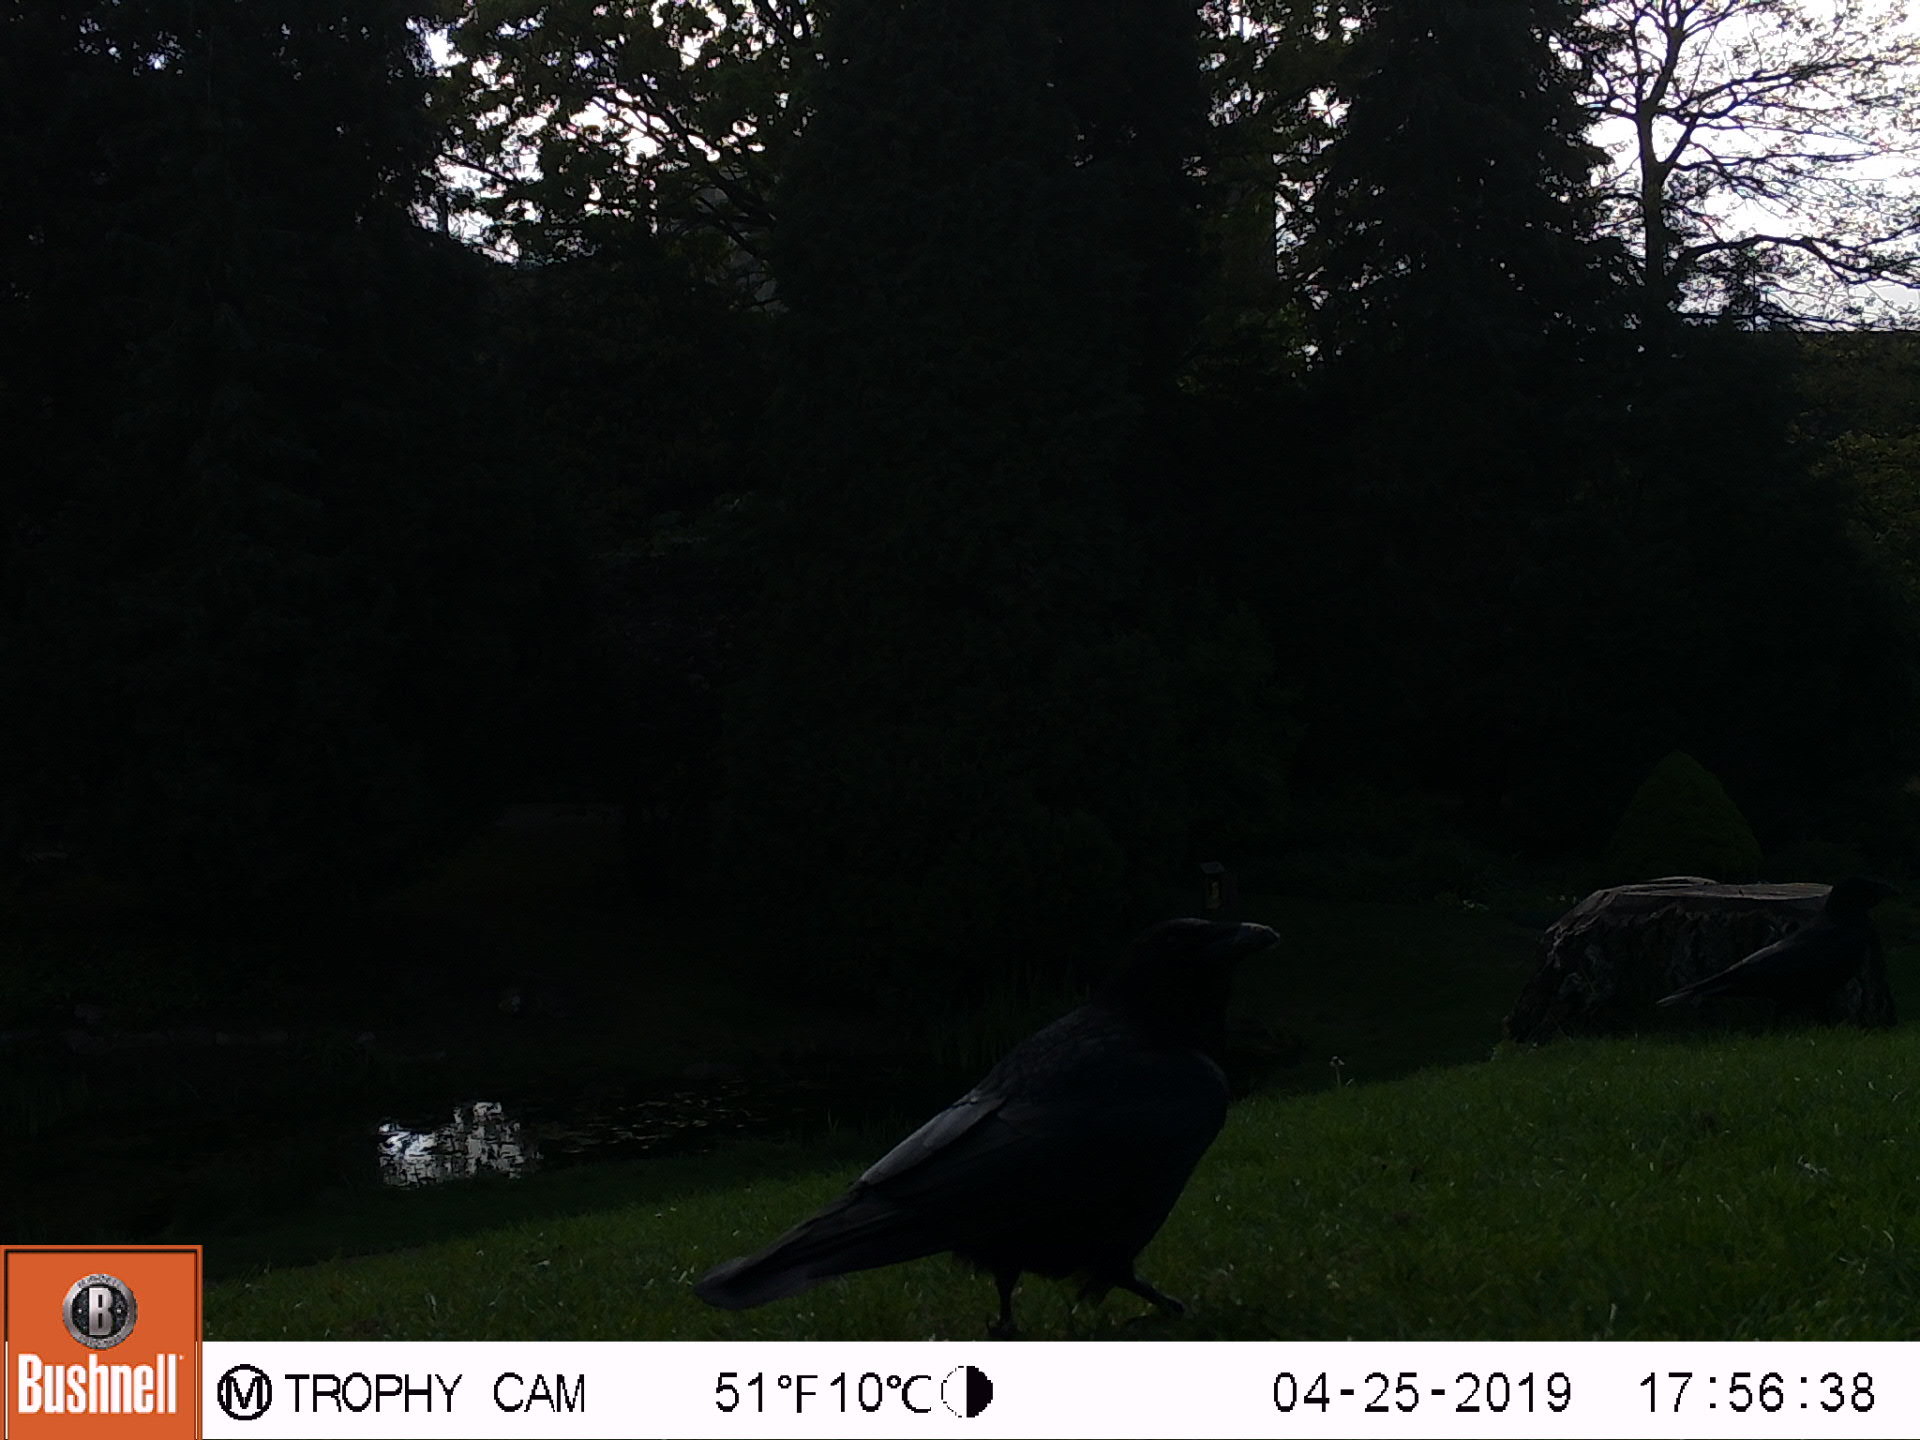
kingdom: Animalia
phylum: Chordata
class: Aves
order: Passeriformes
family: Corvidae
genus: Corvus
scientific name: Corvus corone
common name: Carrion crow
